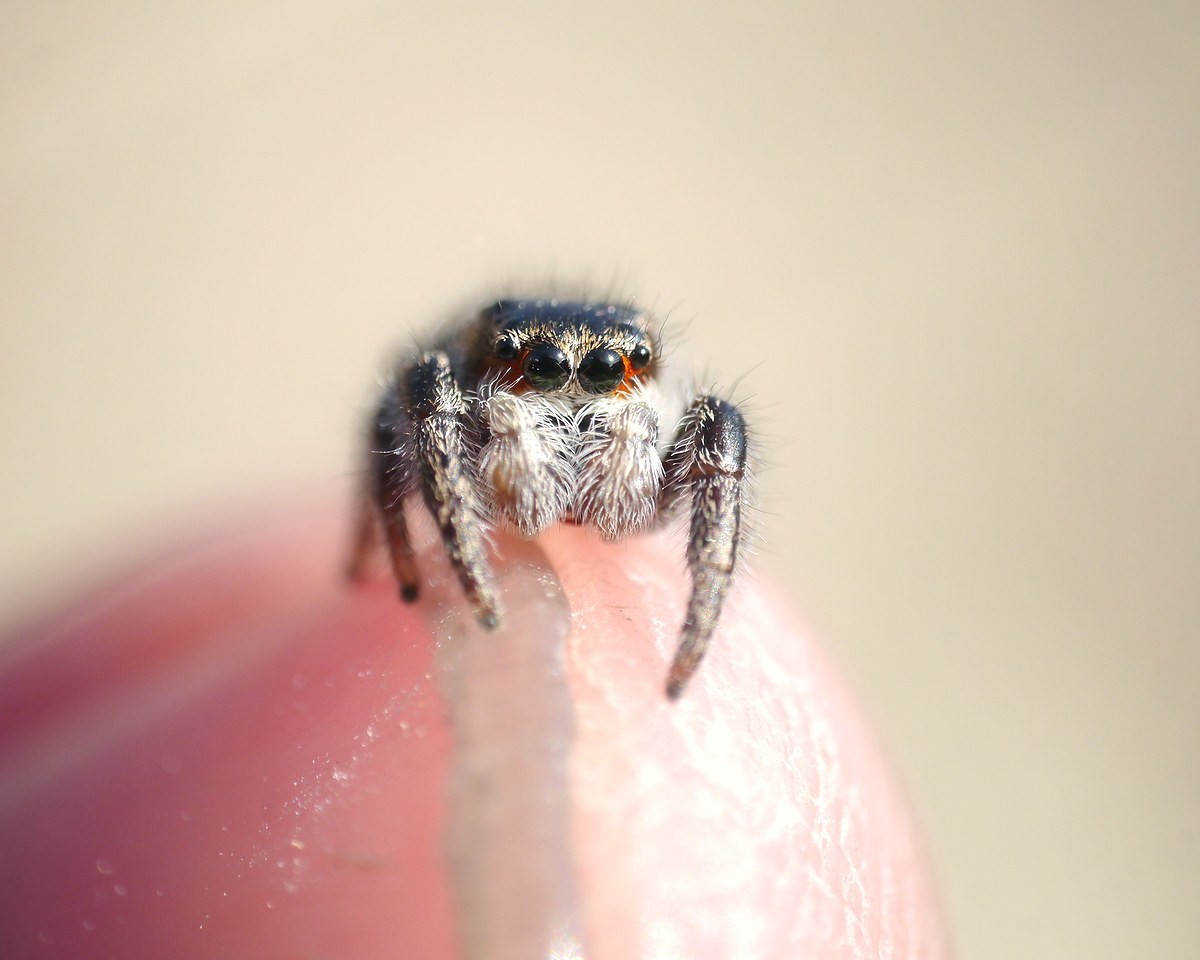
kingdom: Animalia
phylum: Arthropoda
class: Arachnida
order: Araneae
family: Salticidae
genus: Pellenes
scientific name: Pellenes seriatus
